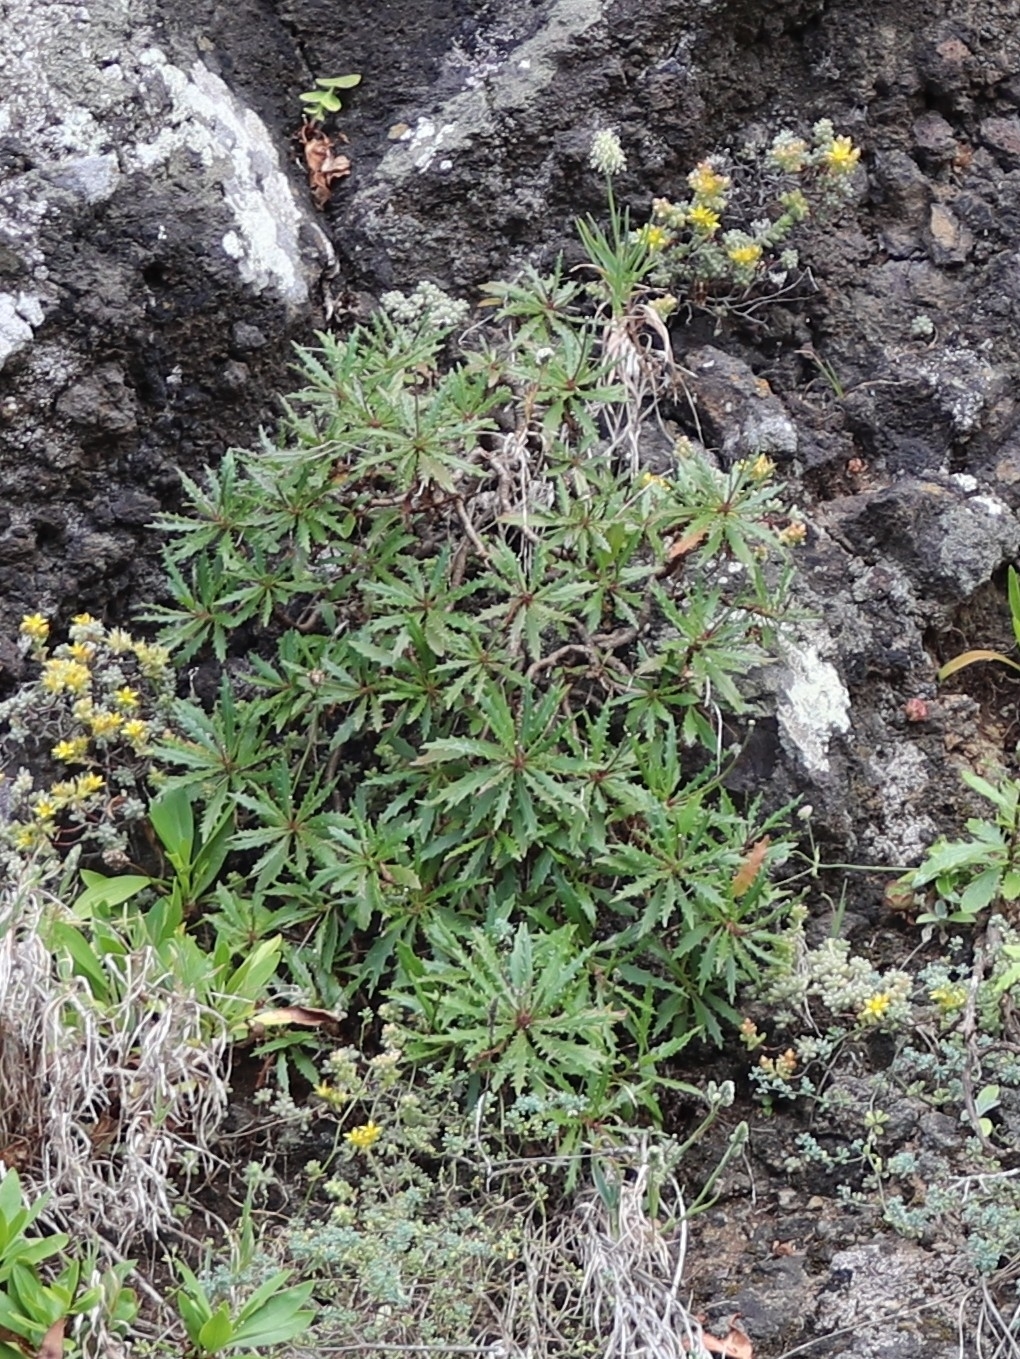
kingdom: Plantae
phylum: Tracheophyta
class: Magnoliopsida
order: Asterales
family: Asteraceae
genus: Tolpis
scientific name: Tolpis succulenta
